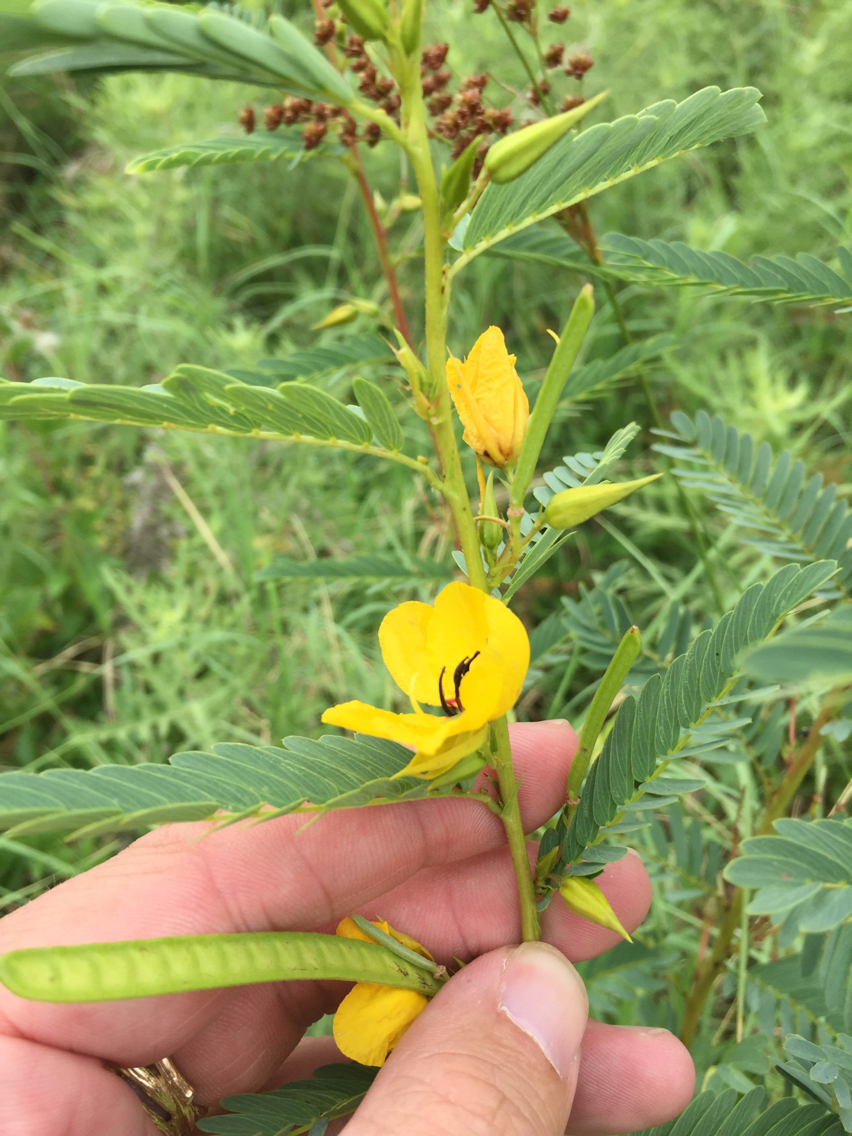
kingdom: Plantae
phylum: Tracheophyta
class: Magnoliopsida
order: Fabales
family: Fabaceae
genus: Chamaecrista
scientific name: Chamaecrista fasciculata
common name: Golden cassia
